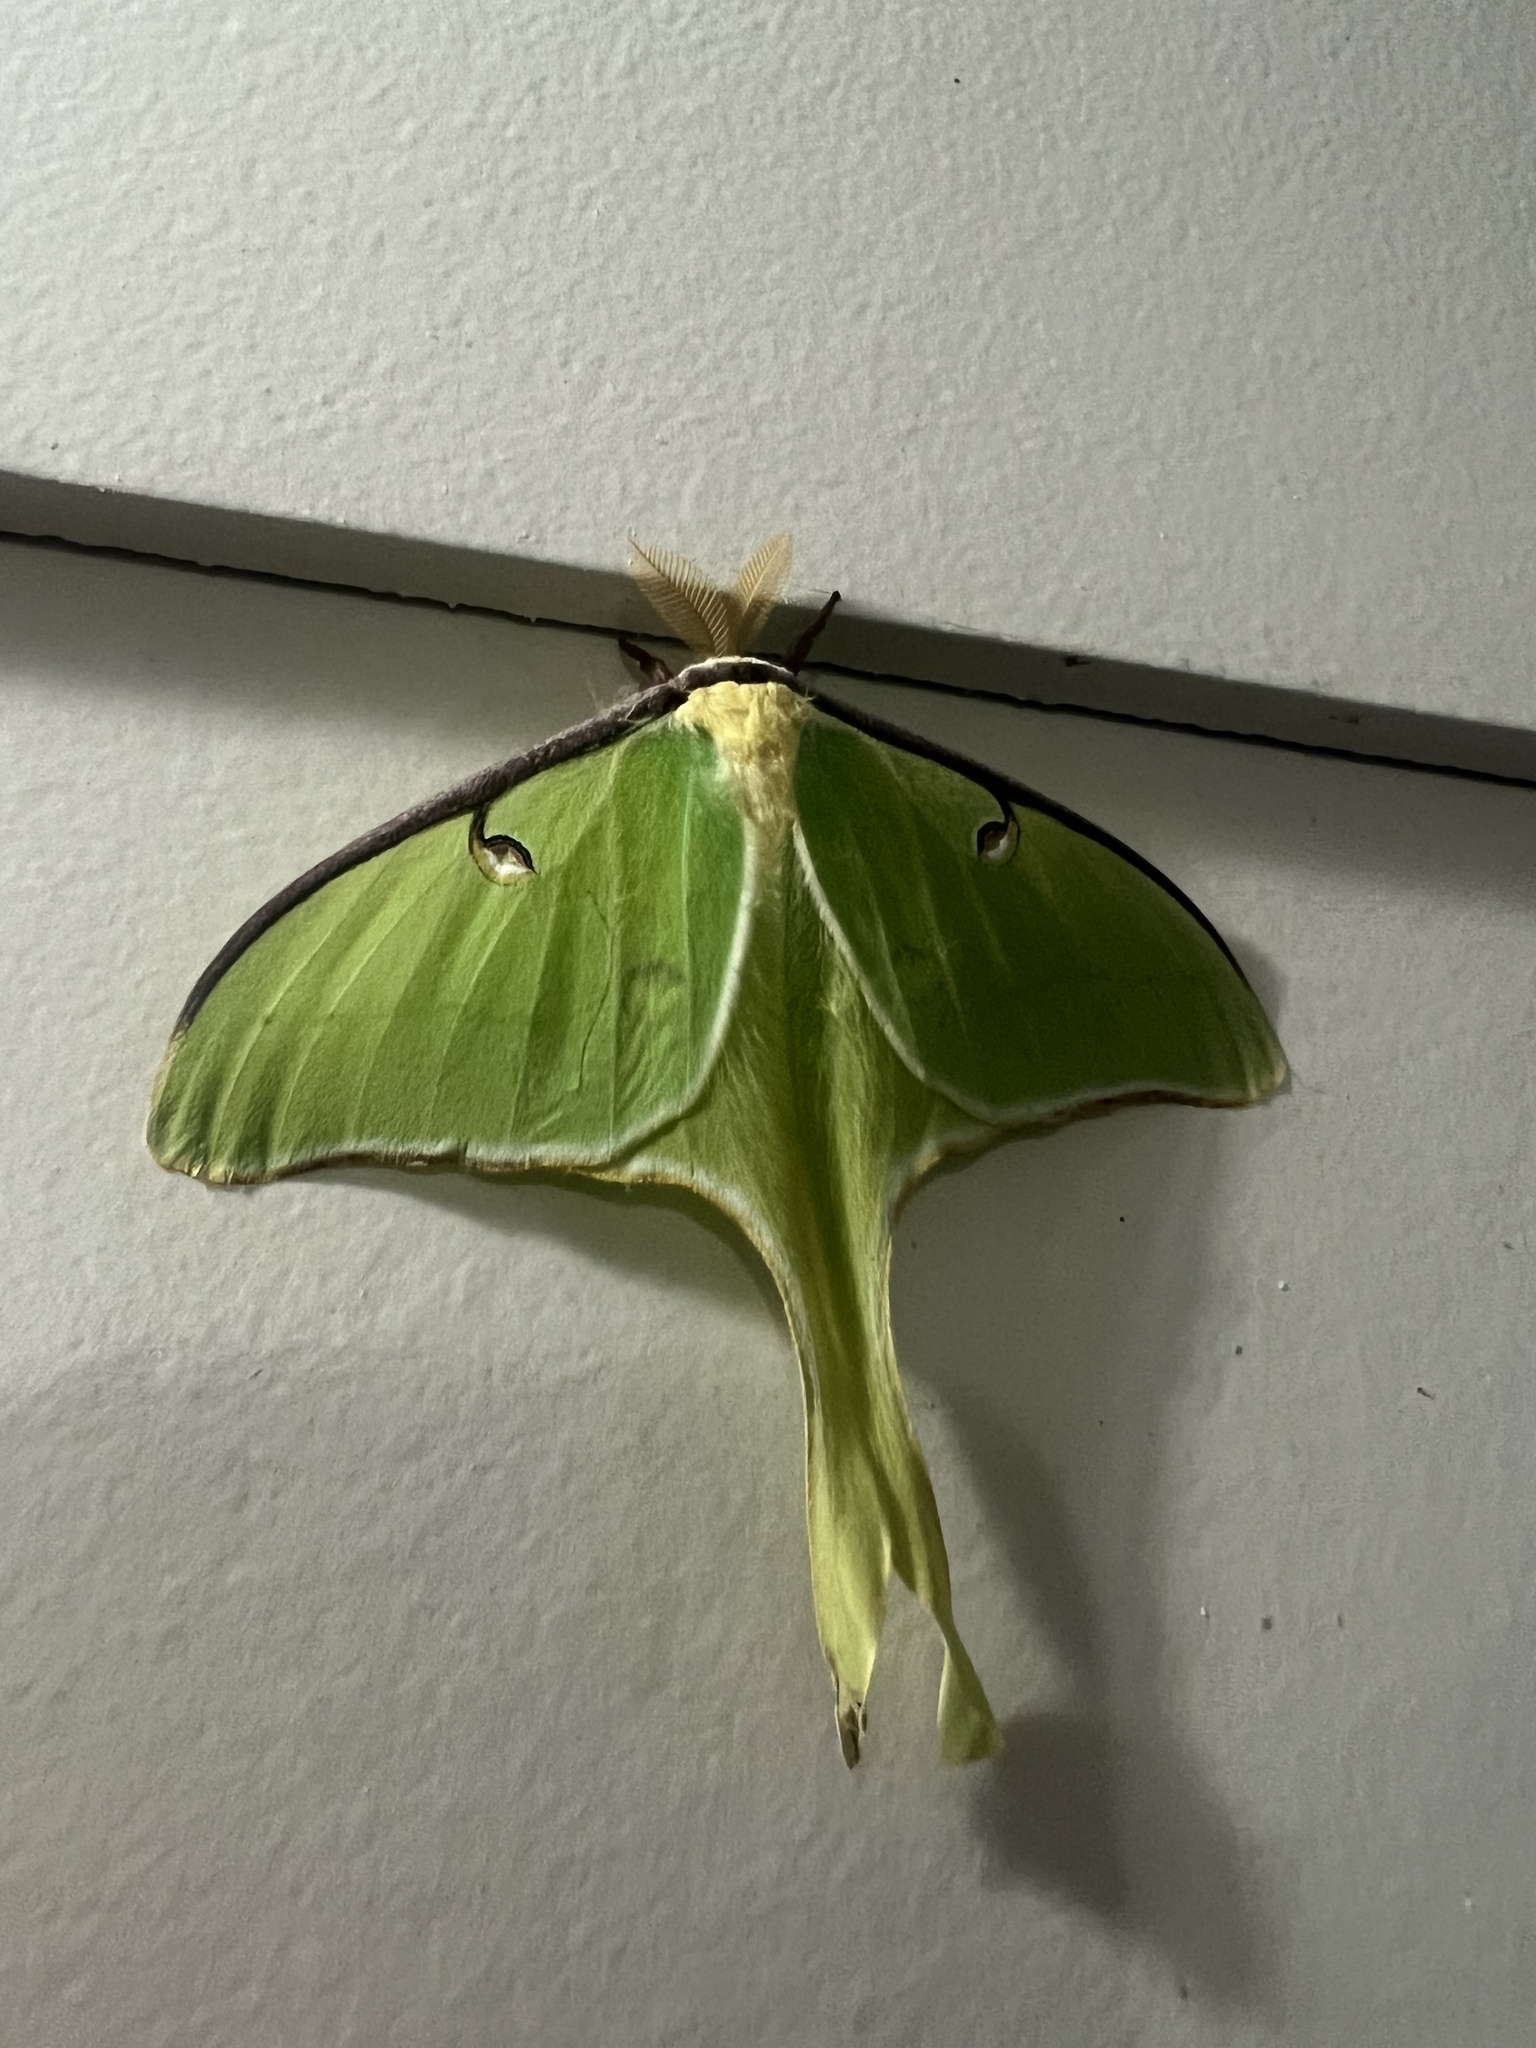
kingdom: Animalia
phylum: Arthropoda
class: Insecta
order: Lepidoptera
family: Saturniidae
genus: Actias
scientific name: Actias luna
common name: Luna moth
